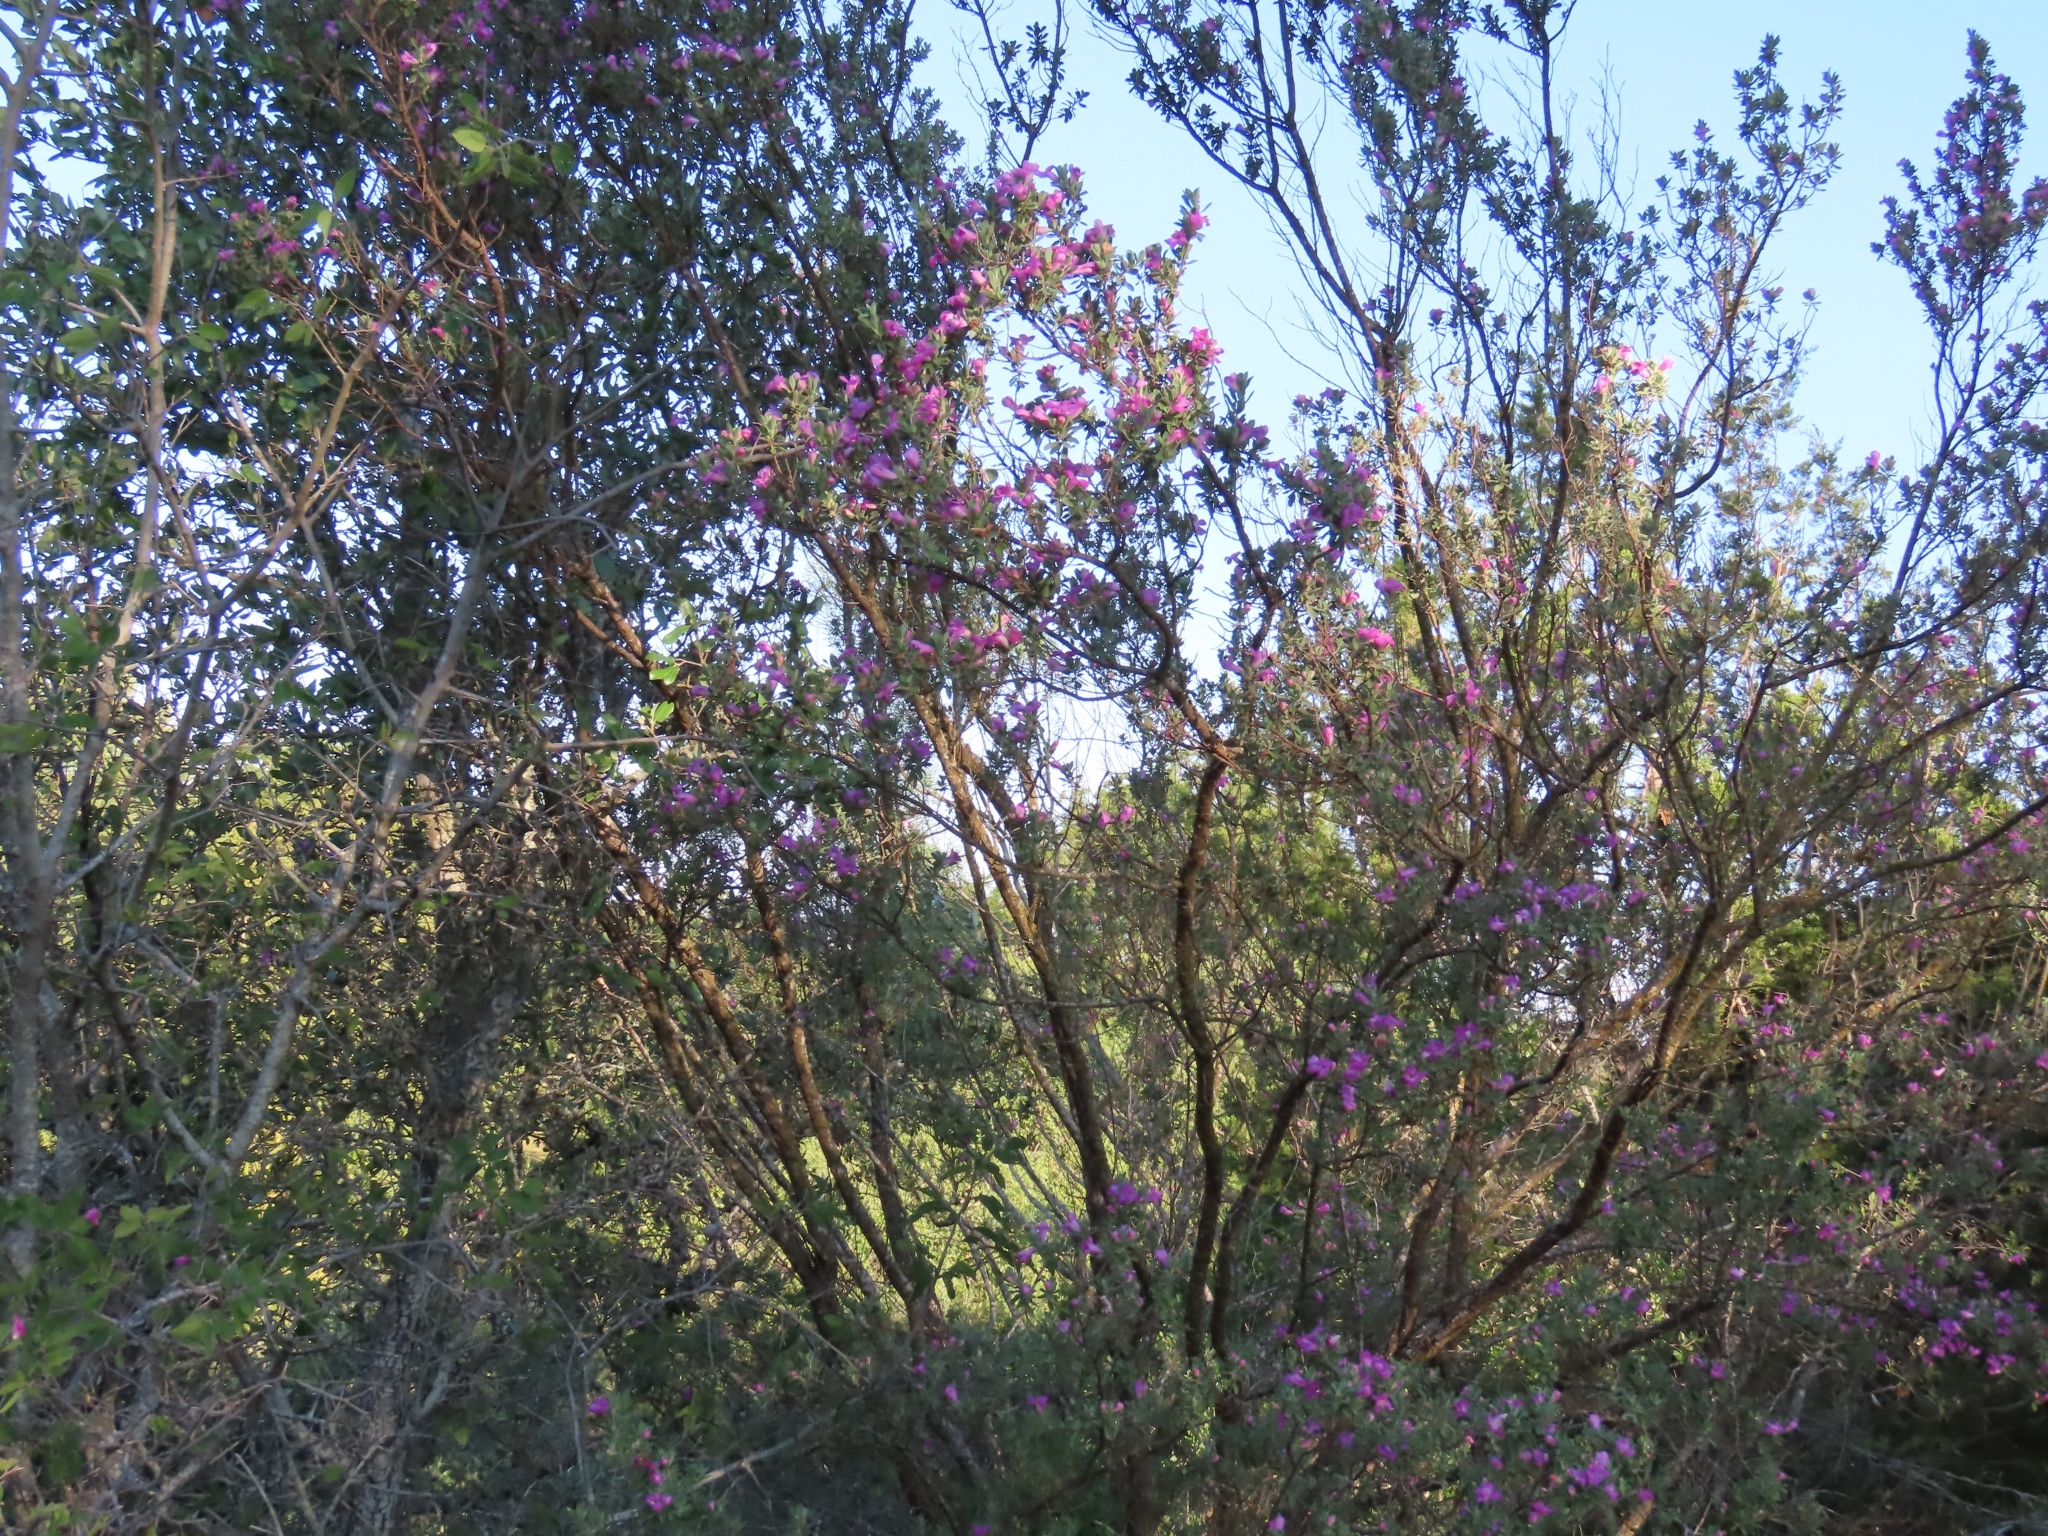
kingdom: Plantae
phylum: Tracheophyta
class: Magnoliopsida
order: Lamiales
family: Scrophulariaceae
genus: Leucophyllum
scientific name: Leucophyllum frutescens
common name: Texas silverleaf
